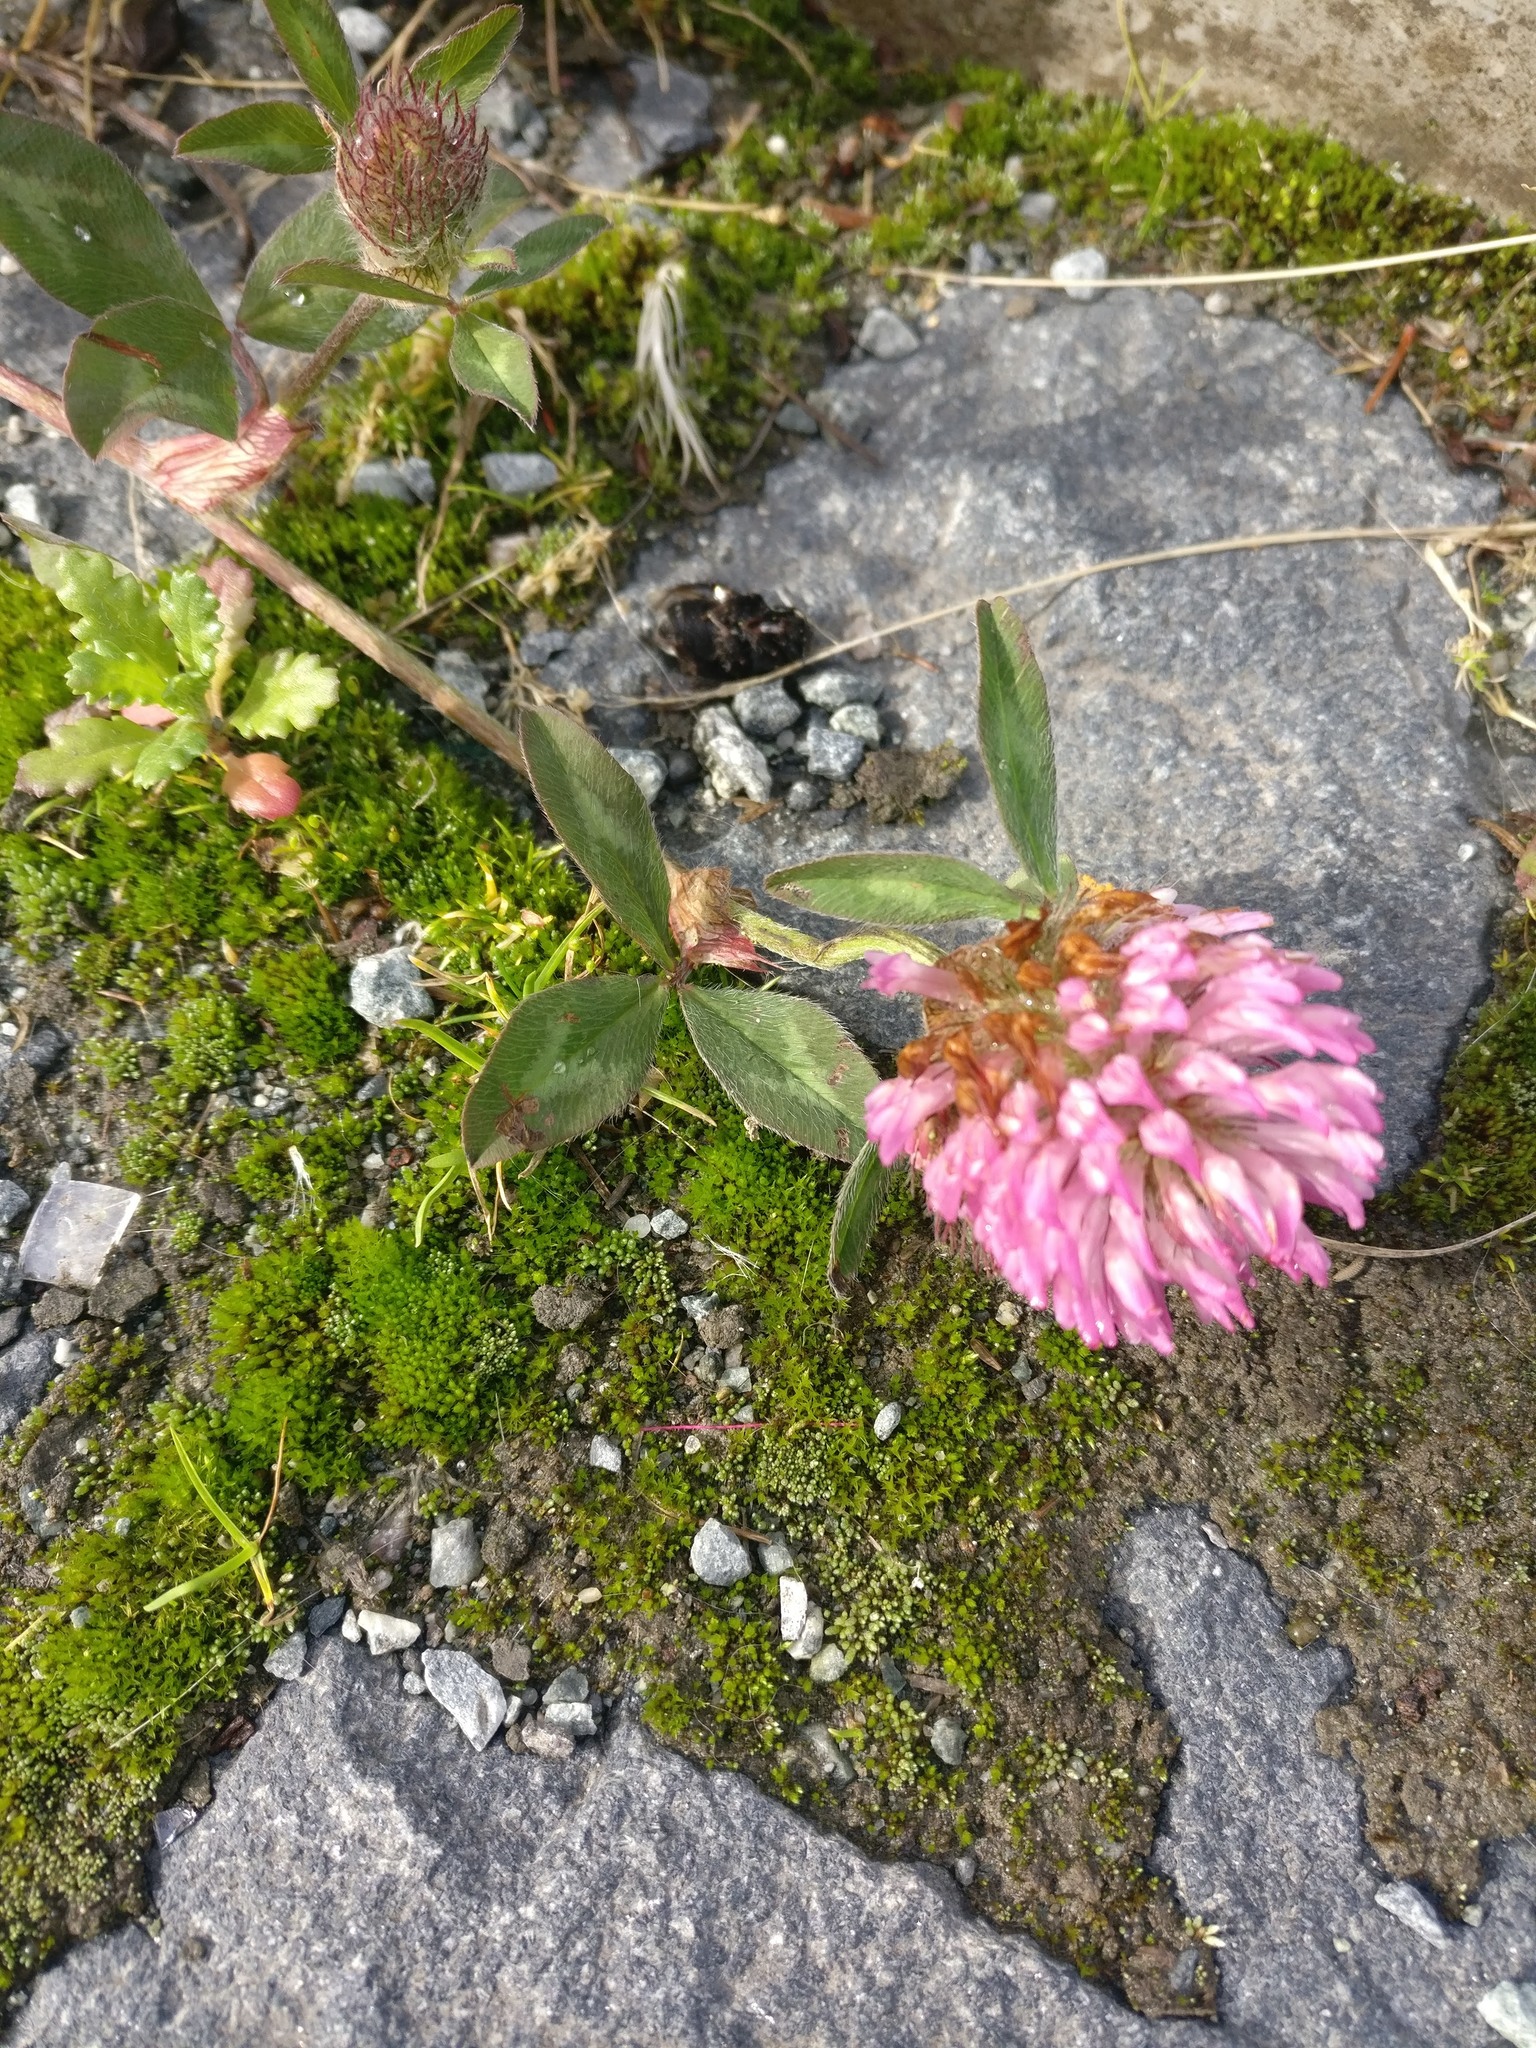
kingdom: Plantae
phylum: Tracheophyta
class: Magnoliopsida
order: Fabales
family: Fabaceae
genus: Trifolium
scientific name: Trifolium pratense
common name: Red clover
